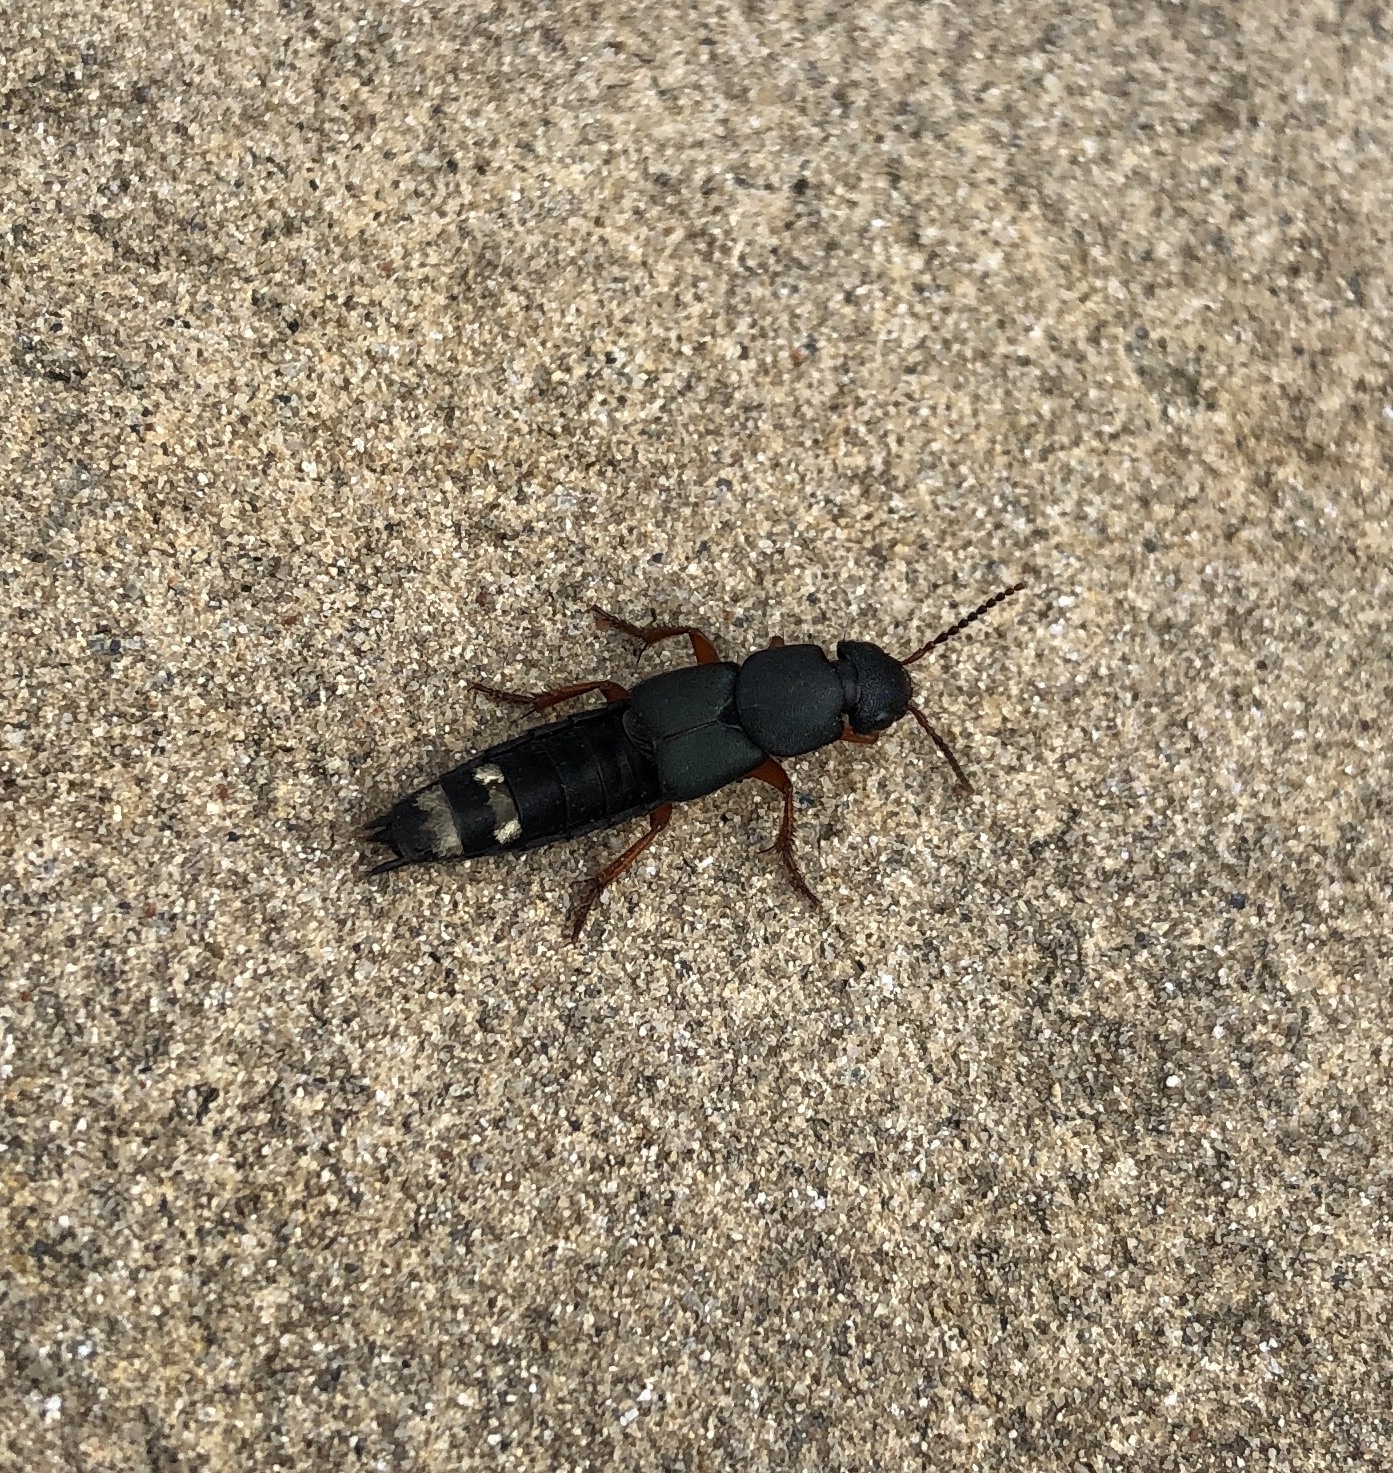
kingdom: Animalia
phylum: Arthropoda
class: Insecta
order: Coleoptera
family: Staphylinidae
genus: Platydracus
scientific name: Platydracus fulvipes
